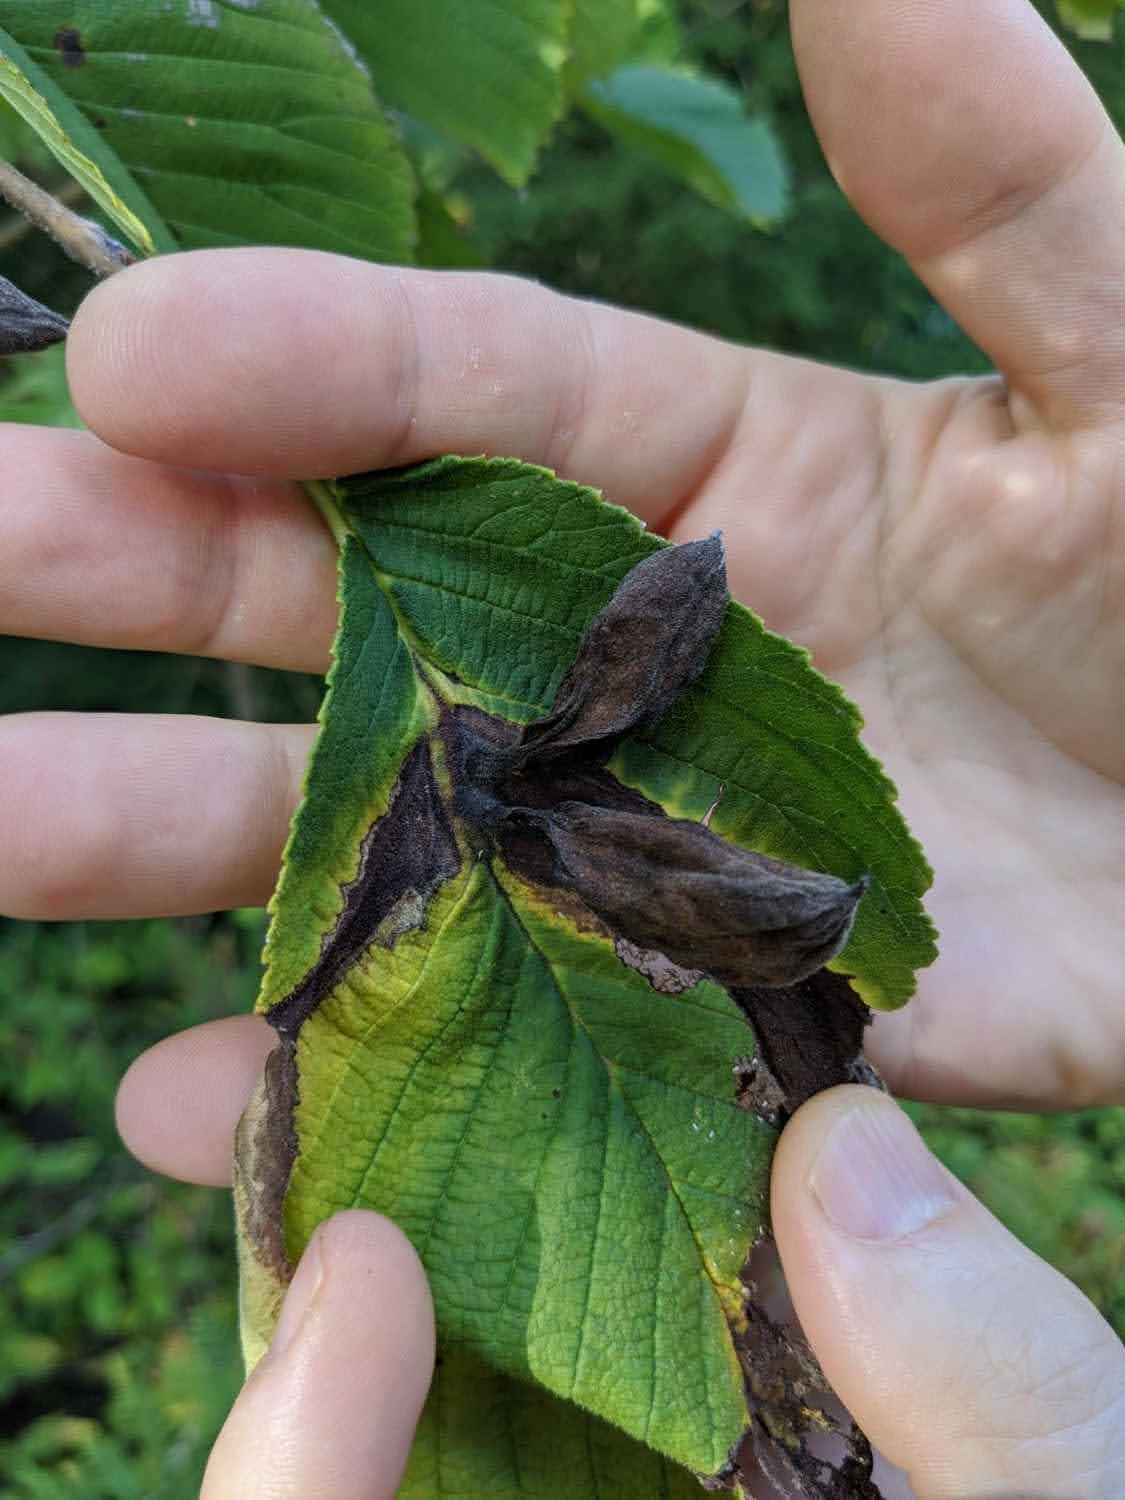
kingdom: Animalia
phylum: Arthropoda
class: Insecta
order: Hemiptera
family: Aphididae
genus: Kaltenbachiella
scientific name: Kaltenbachiella ulmifusa
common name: Elm pouchgall aphid
